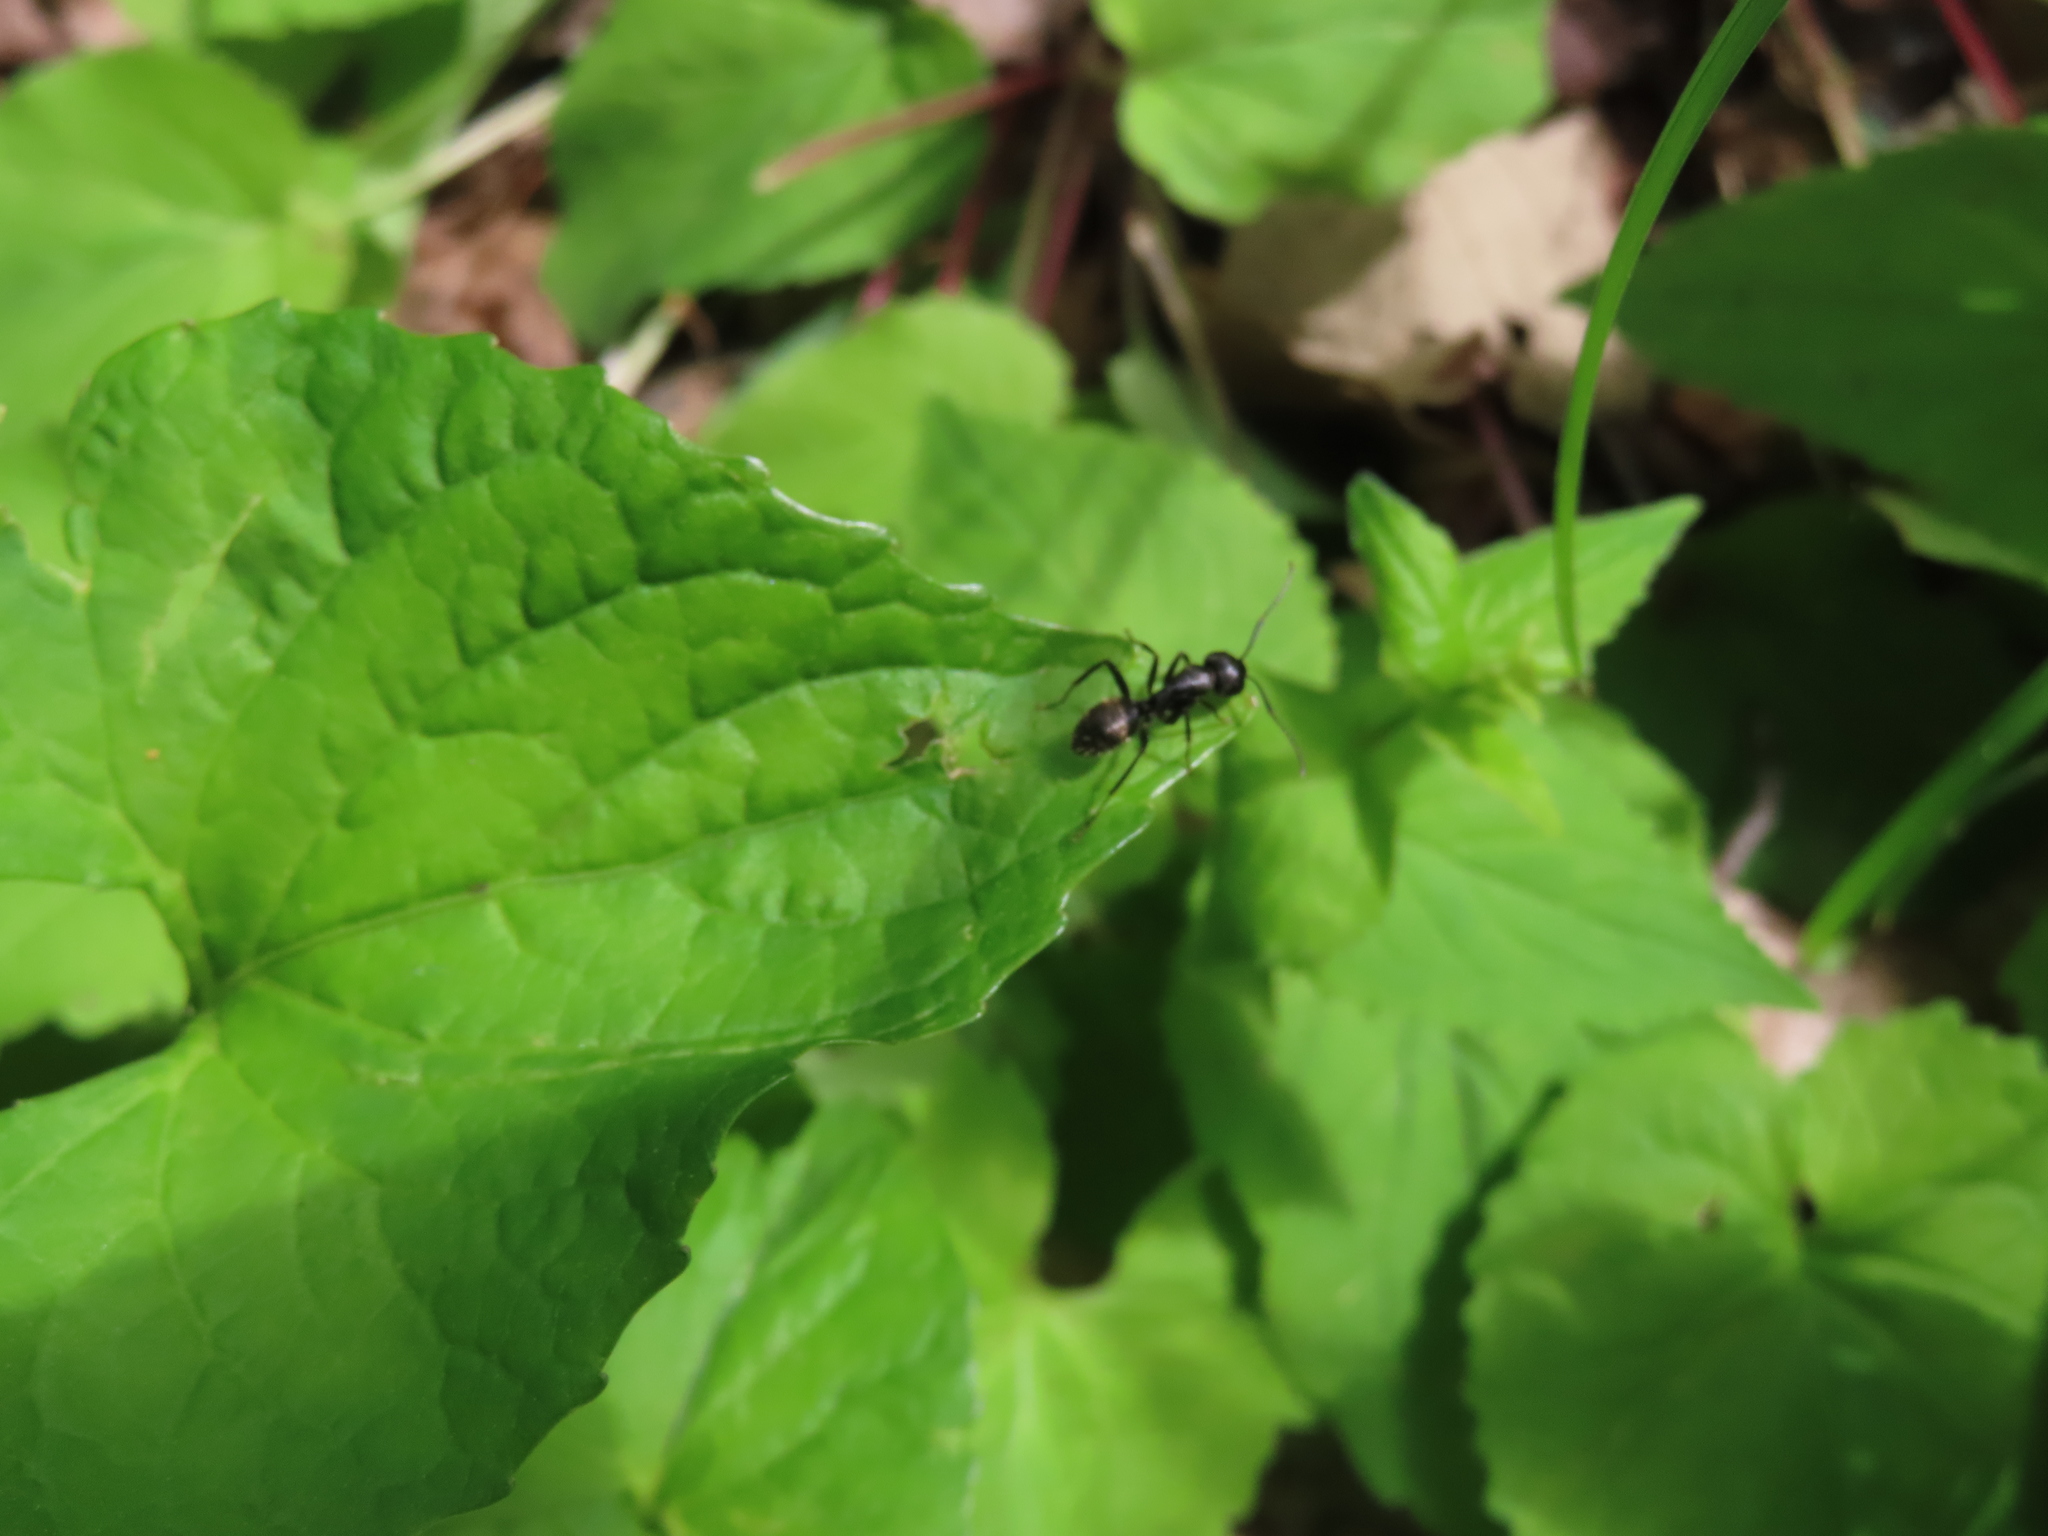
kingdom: Animalia
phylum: Arthropoda
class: Insecta
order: Hymenoptera
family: Formicidae
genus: Camponotus
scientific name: Camponotus pennsylvanicus
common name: Black carpenter ant
